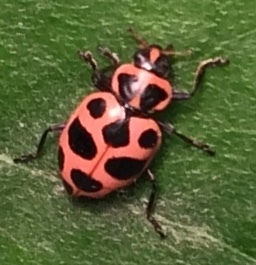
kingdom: Animalia
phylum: Arthropoda
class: Insecta
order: Coleoptera
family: Coccinellidae
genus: Coleomegilla
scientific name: Coleomegilla maculata
